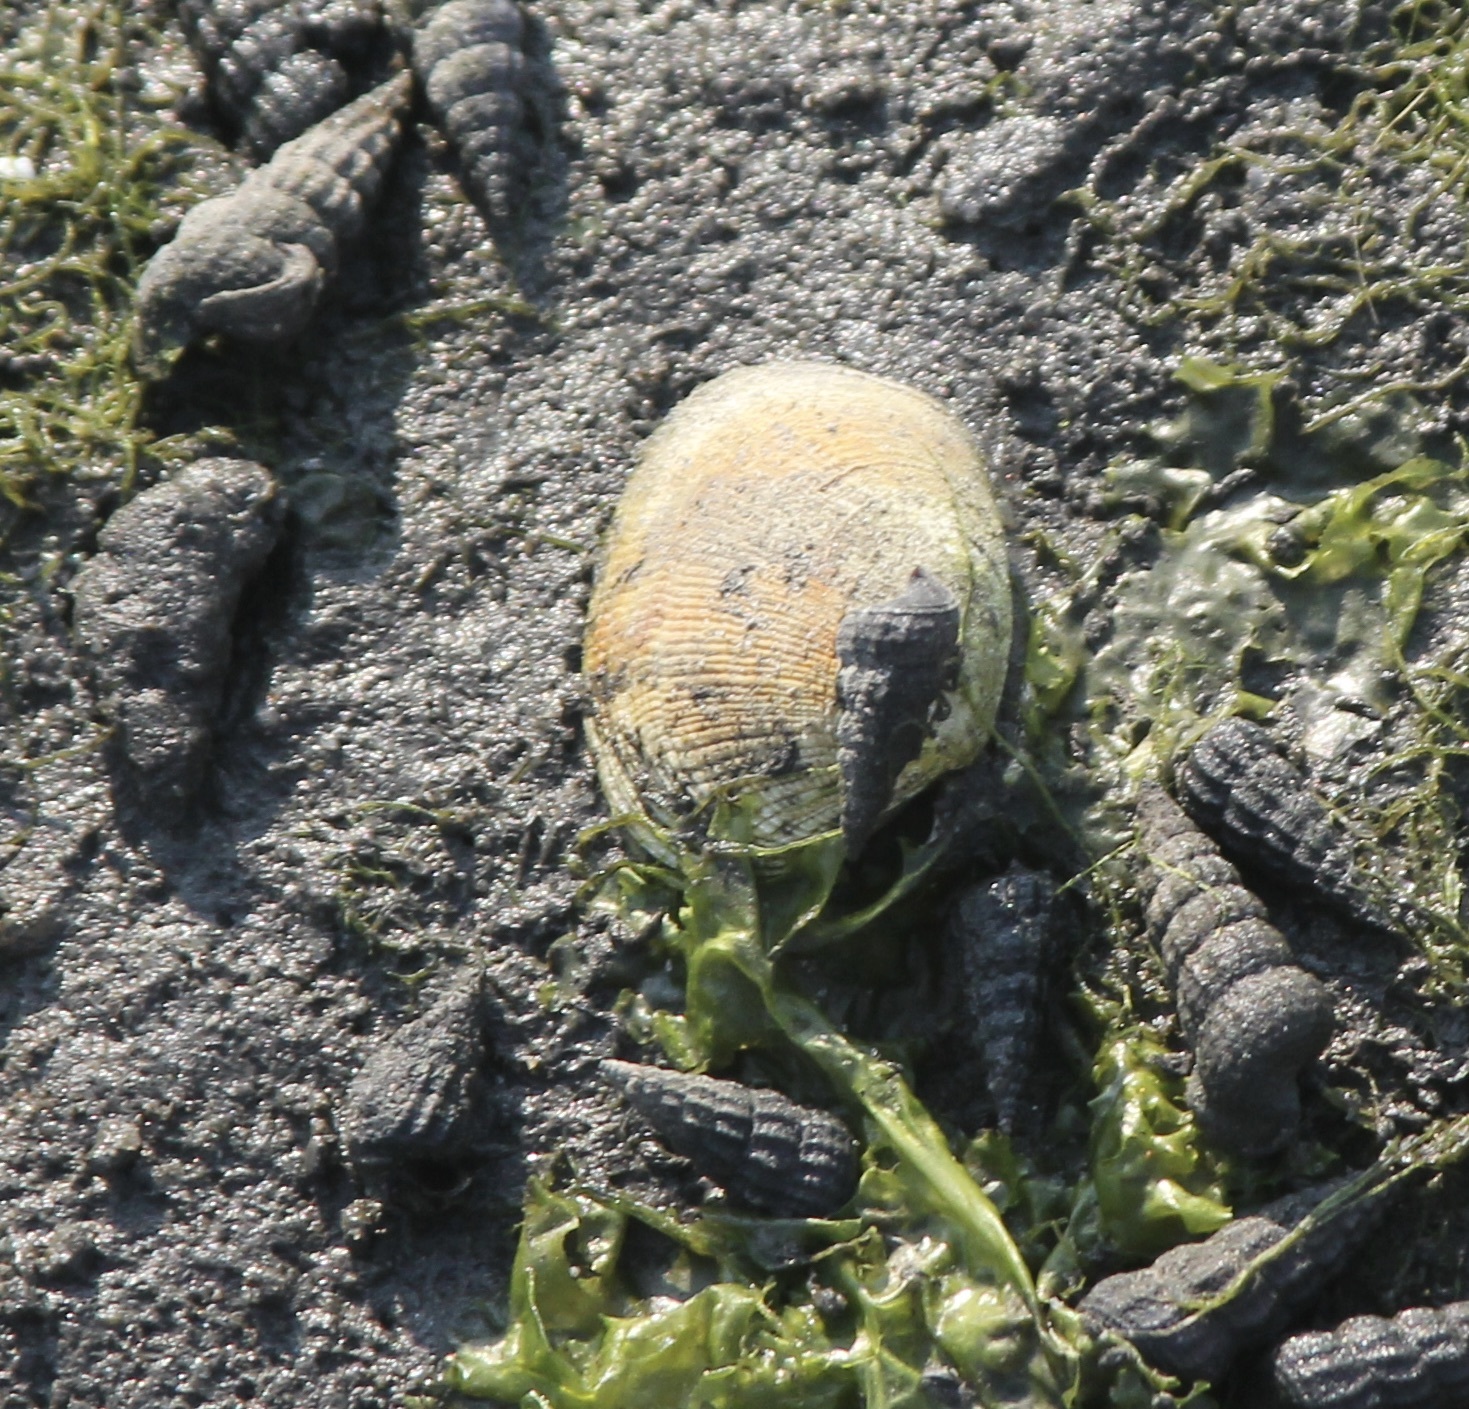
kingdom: Animalia
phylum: Mollusca
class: Bivalvia
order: Venerida
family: Veneridae
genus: Ruditapes
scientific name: Ruditapes philippinarum
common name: Manila clam
